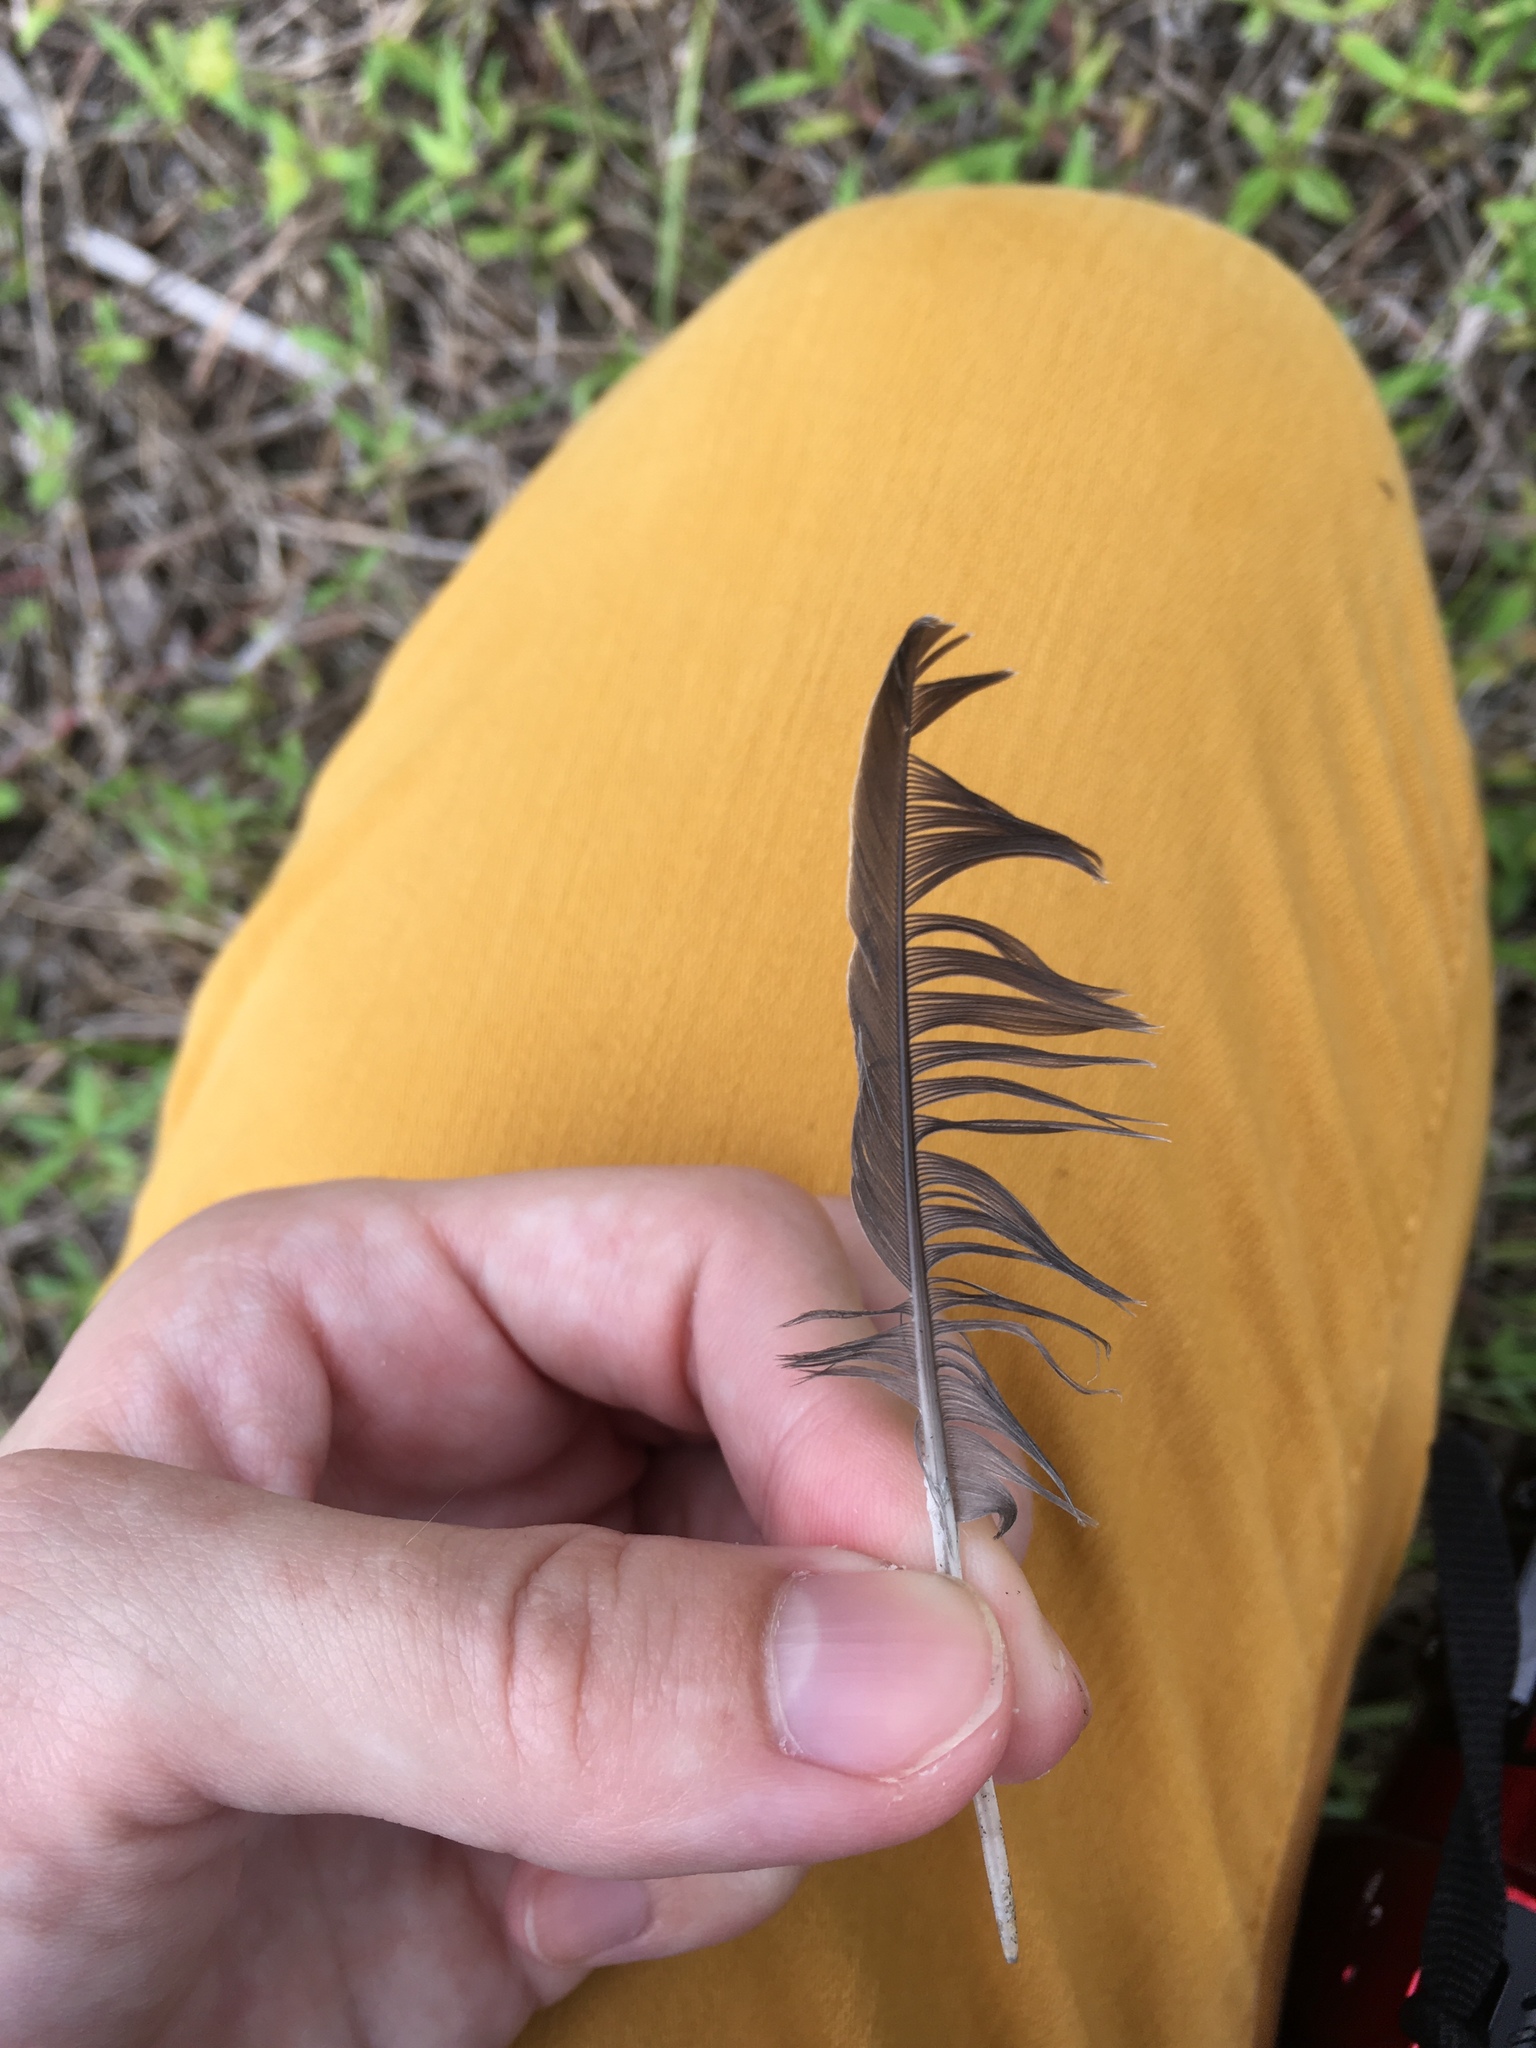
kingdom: Animalia
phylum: Chordata
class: Aves
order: Columbiformes
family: Columbidae
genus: Zenaida
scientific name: Zenaida macroura
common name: Mourning dove
